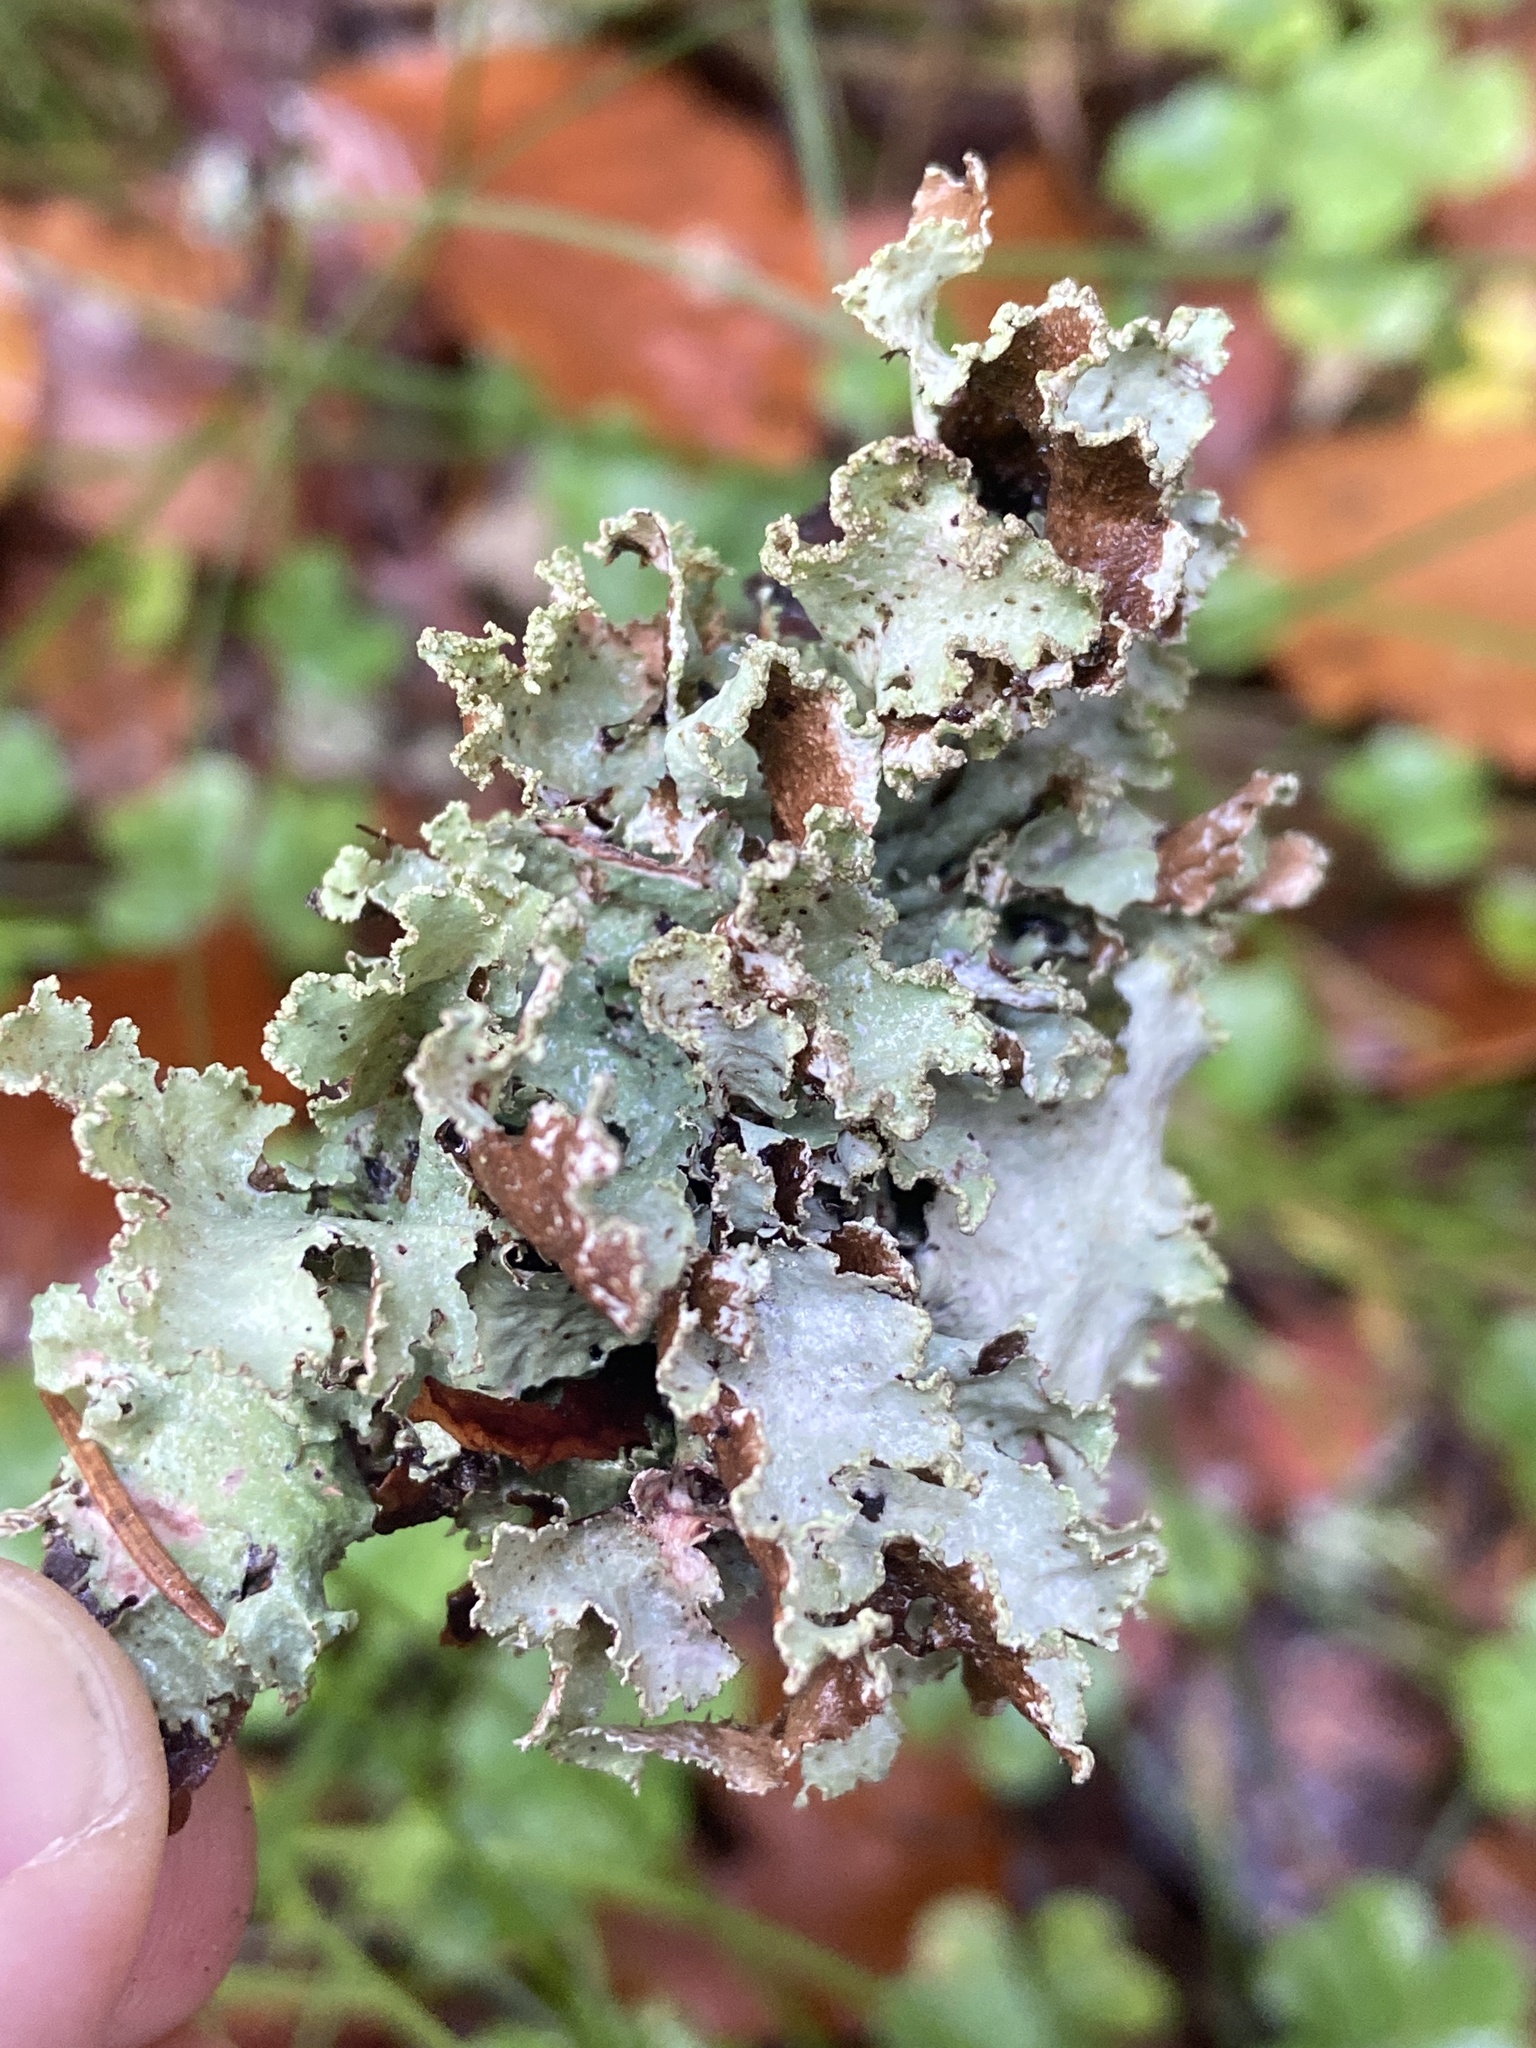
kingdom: Fungi
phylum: Ascomycota
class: Lecanoromycetes
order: Lecanorales
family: Parmeliaceae
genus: Platismatia
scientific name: Platismatia glauca
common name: Varied rag lichen
